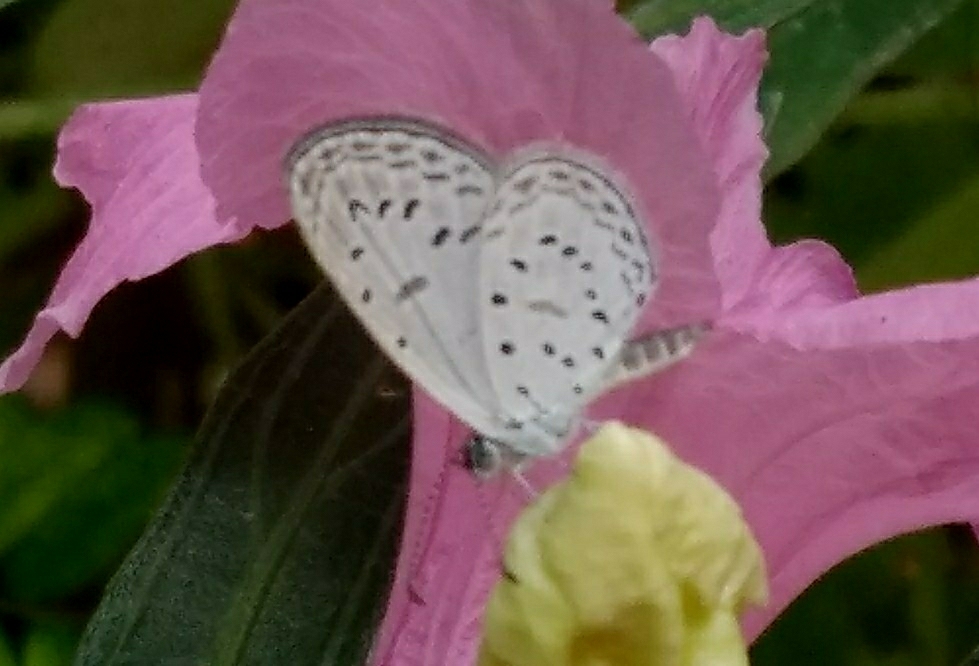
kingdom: Animalia
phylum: Arthropoda
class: Insecta
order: Lepidoptera
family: Lycaenidae
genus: Zizula
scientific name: Zizula hylax
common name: Gaika blue
